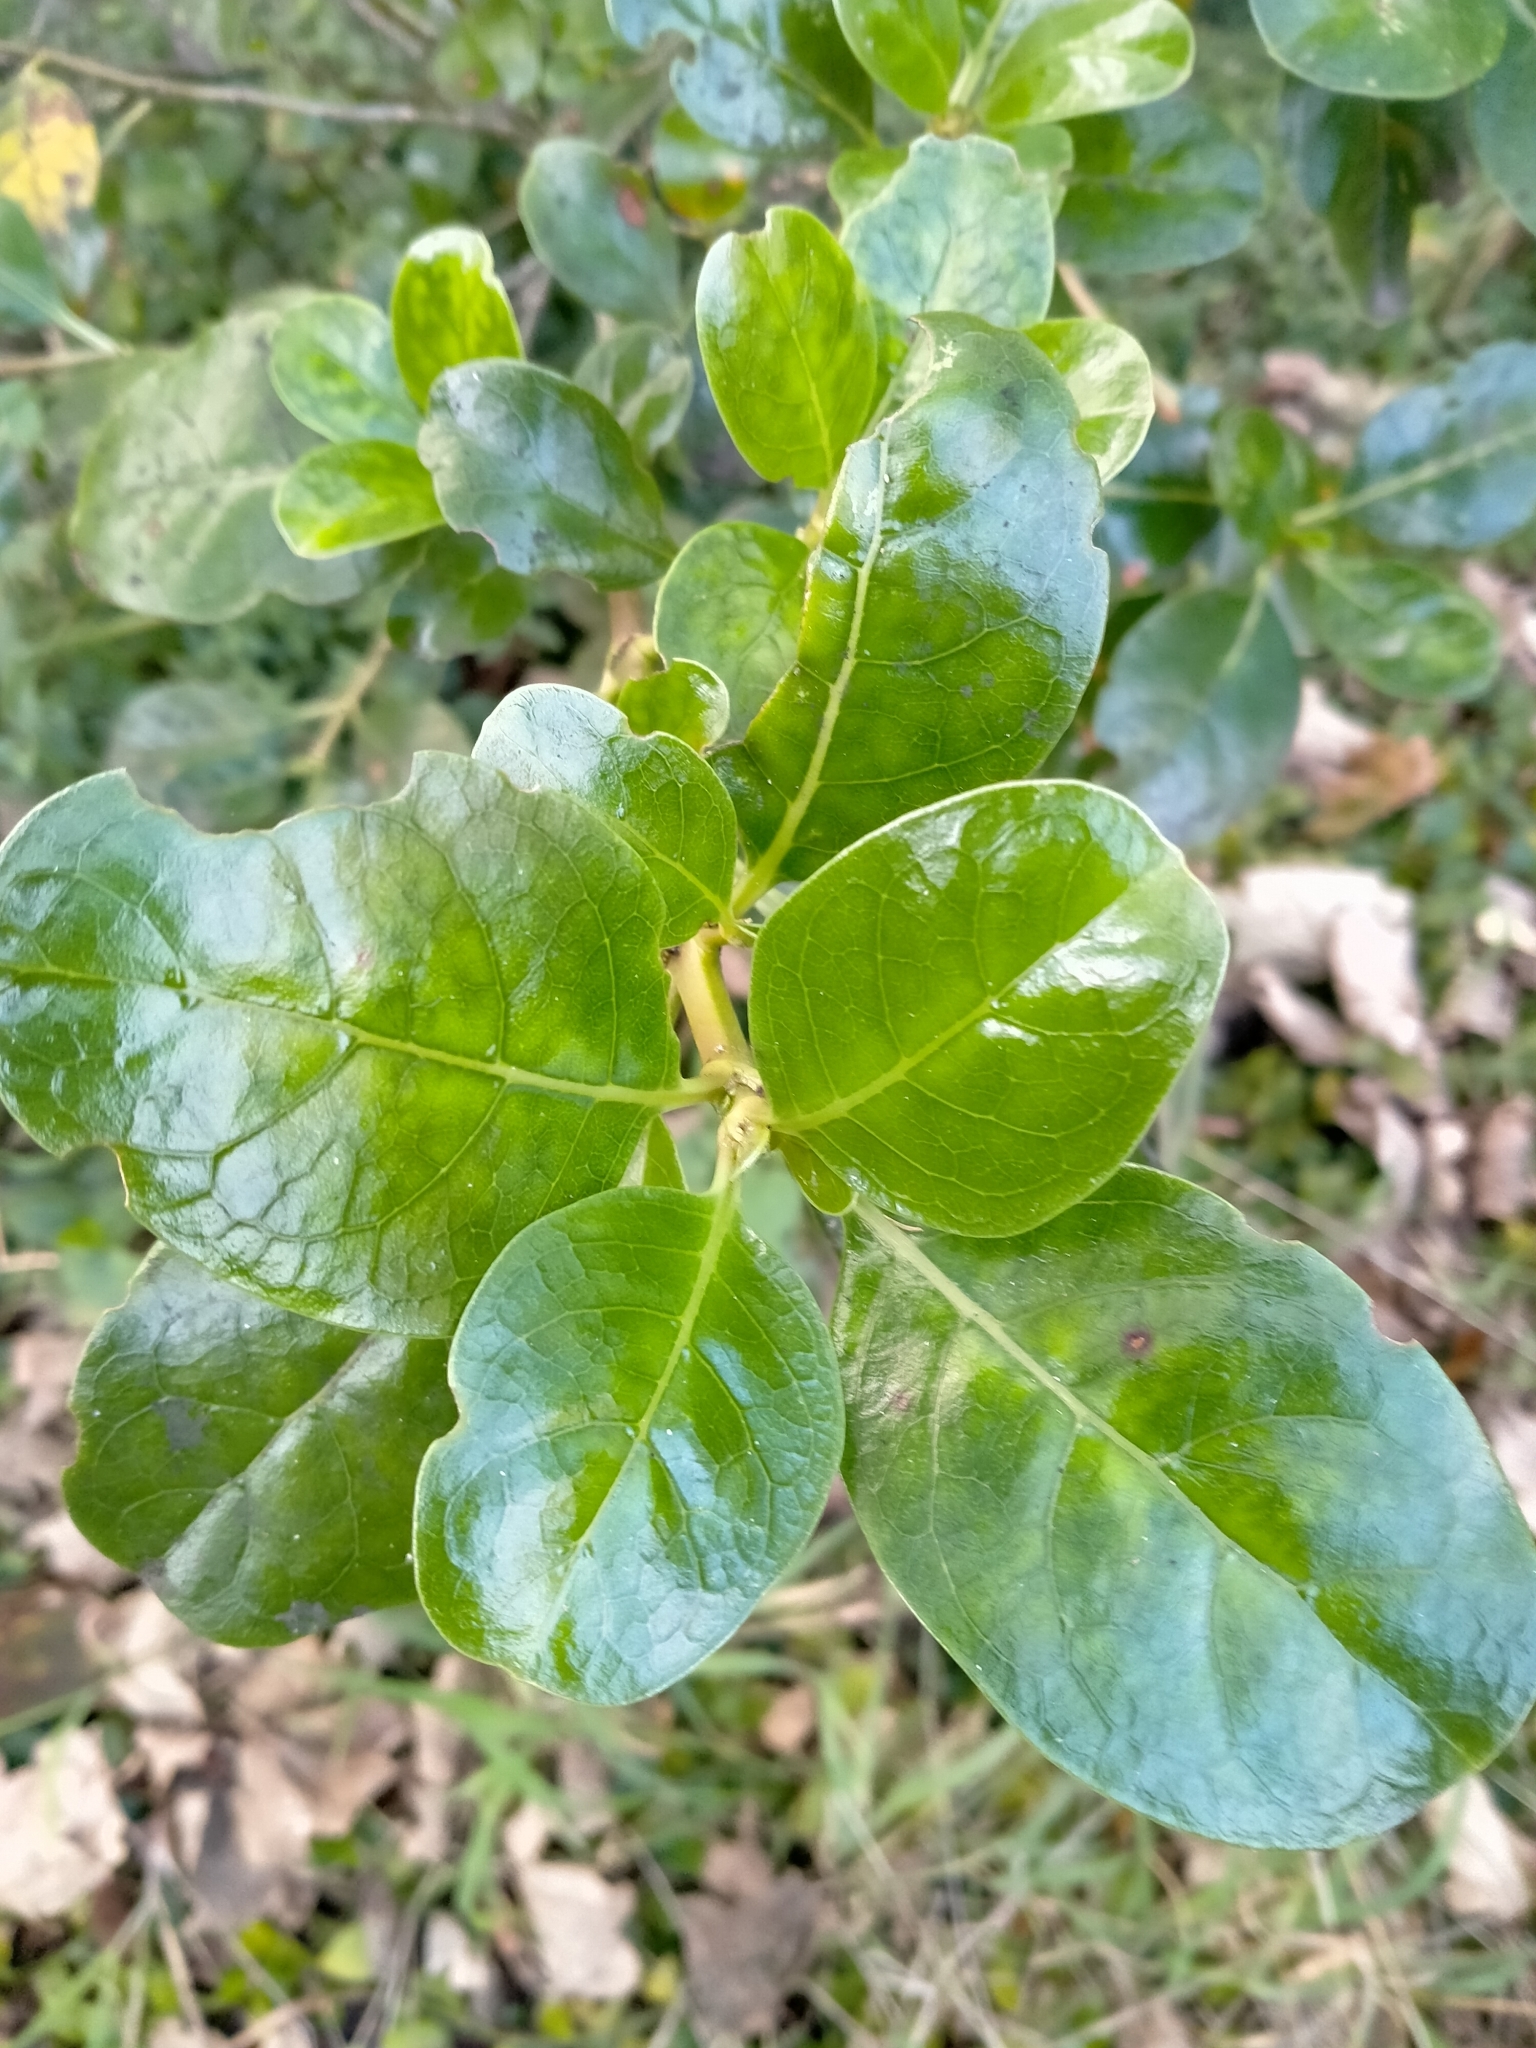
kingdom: Plantae
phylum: Tracheophyta
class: Magnoliopsida
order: Gentianales
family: Rubiaceae
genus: Coprosma
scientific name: Coprosma repens
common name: Tree bedstraw
